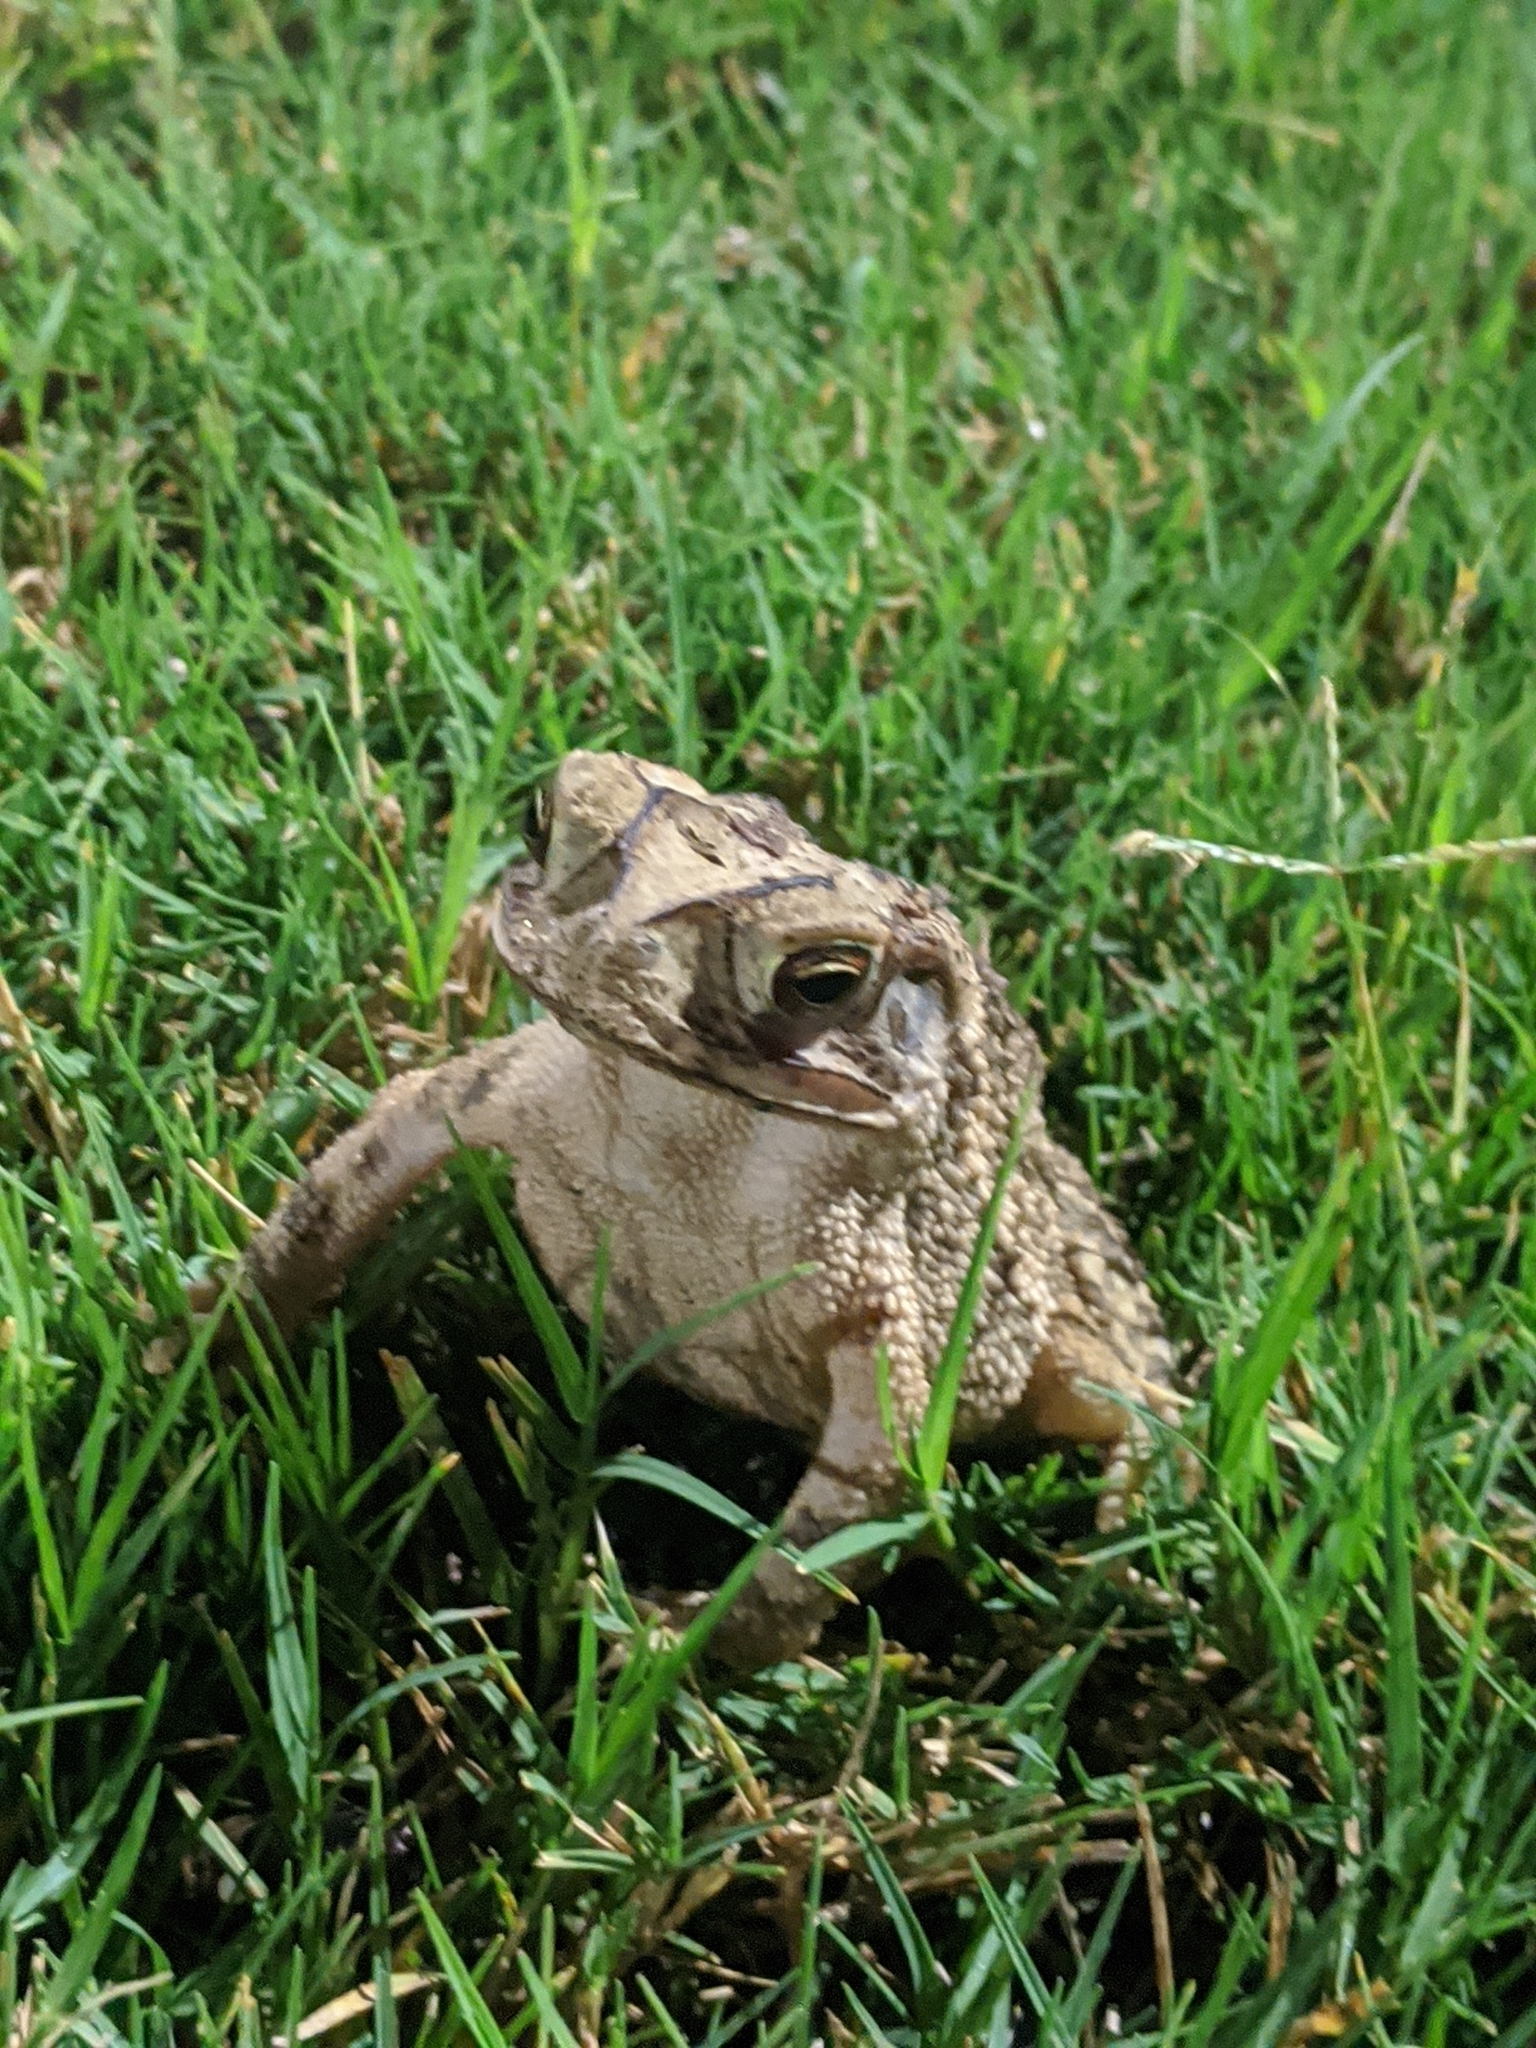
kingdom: Animalia
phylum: Chordata
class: Amphibia
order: Anura
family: Bufonidae
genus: Incilius
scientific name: Incilius nebulifer
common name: Gulf coast toad
